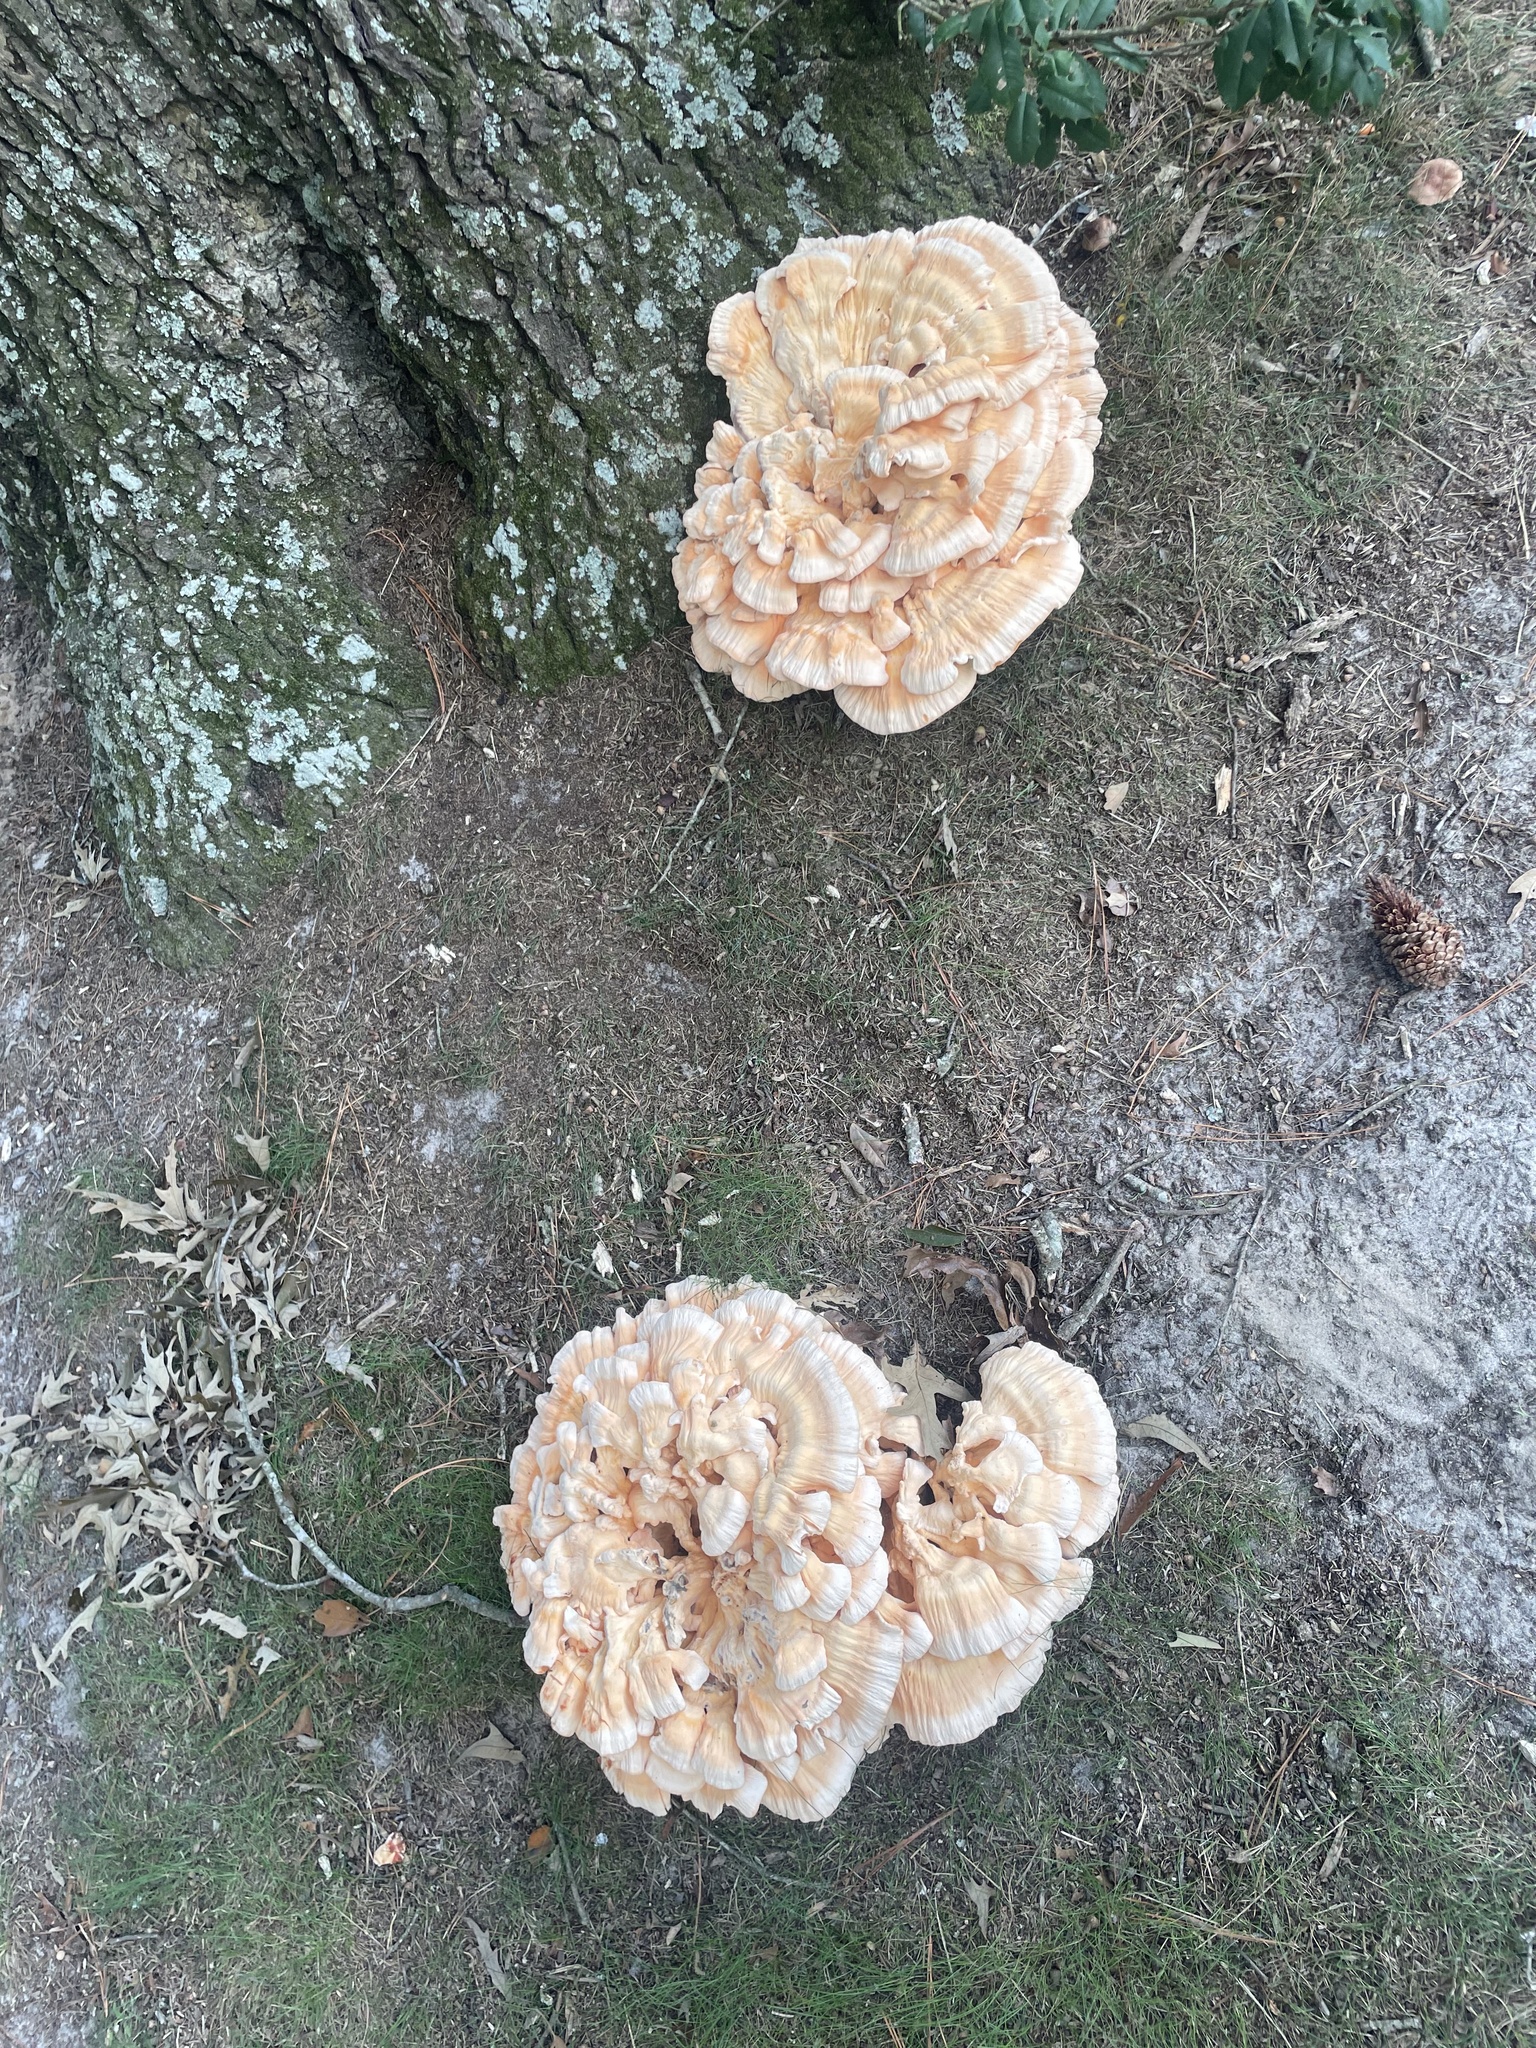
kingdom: Fungi
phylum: Basidiomycota
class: Agaricomycetes
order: Polyporales
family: Laetiporaceae
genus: Laetiporus
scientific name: Laetiporus sulphureus
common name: Chicken of the woods
